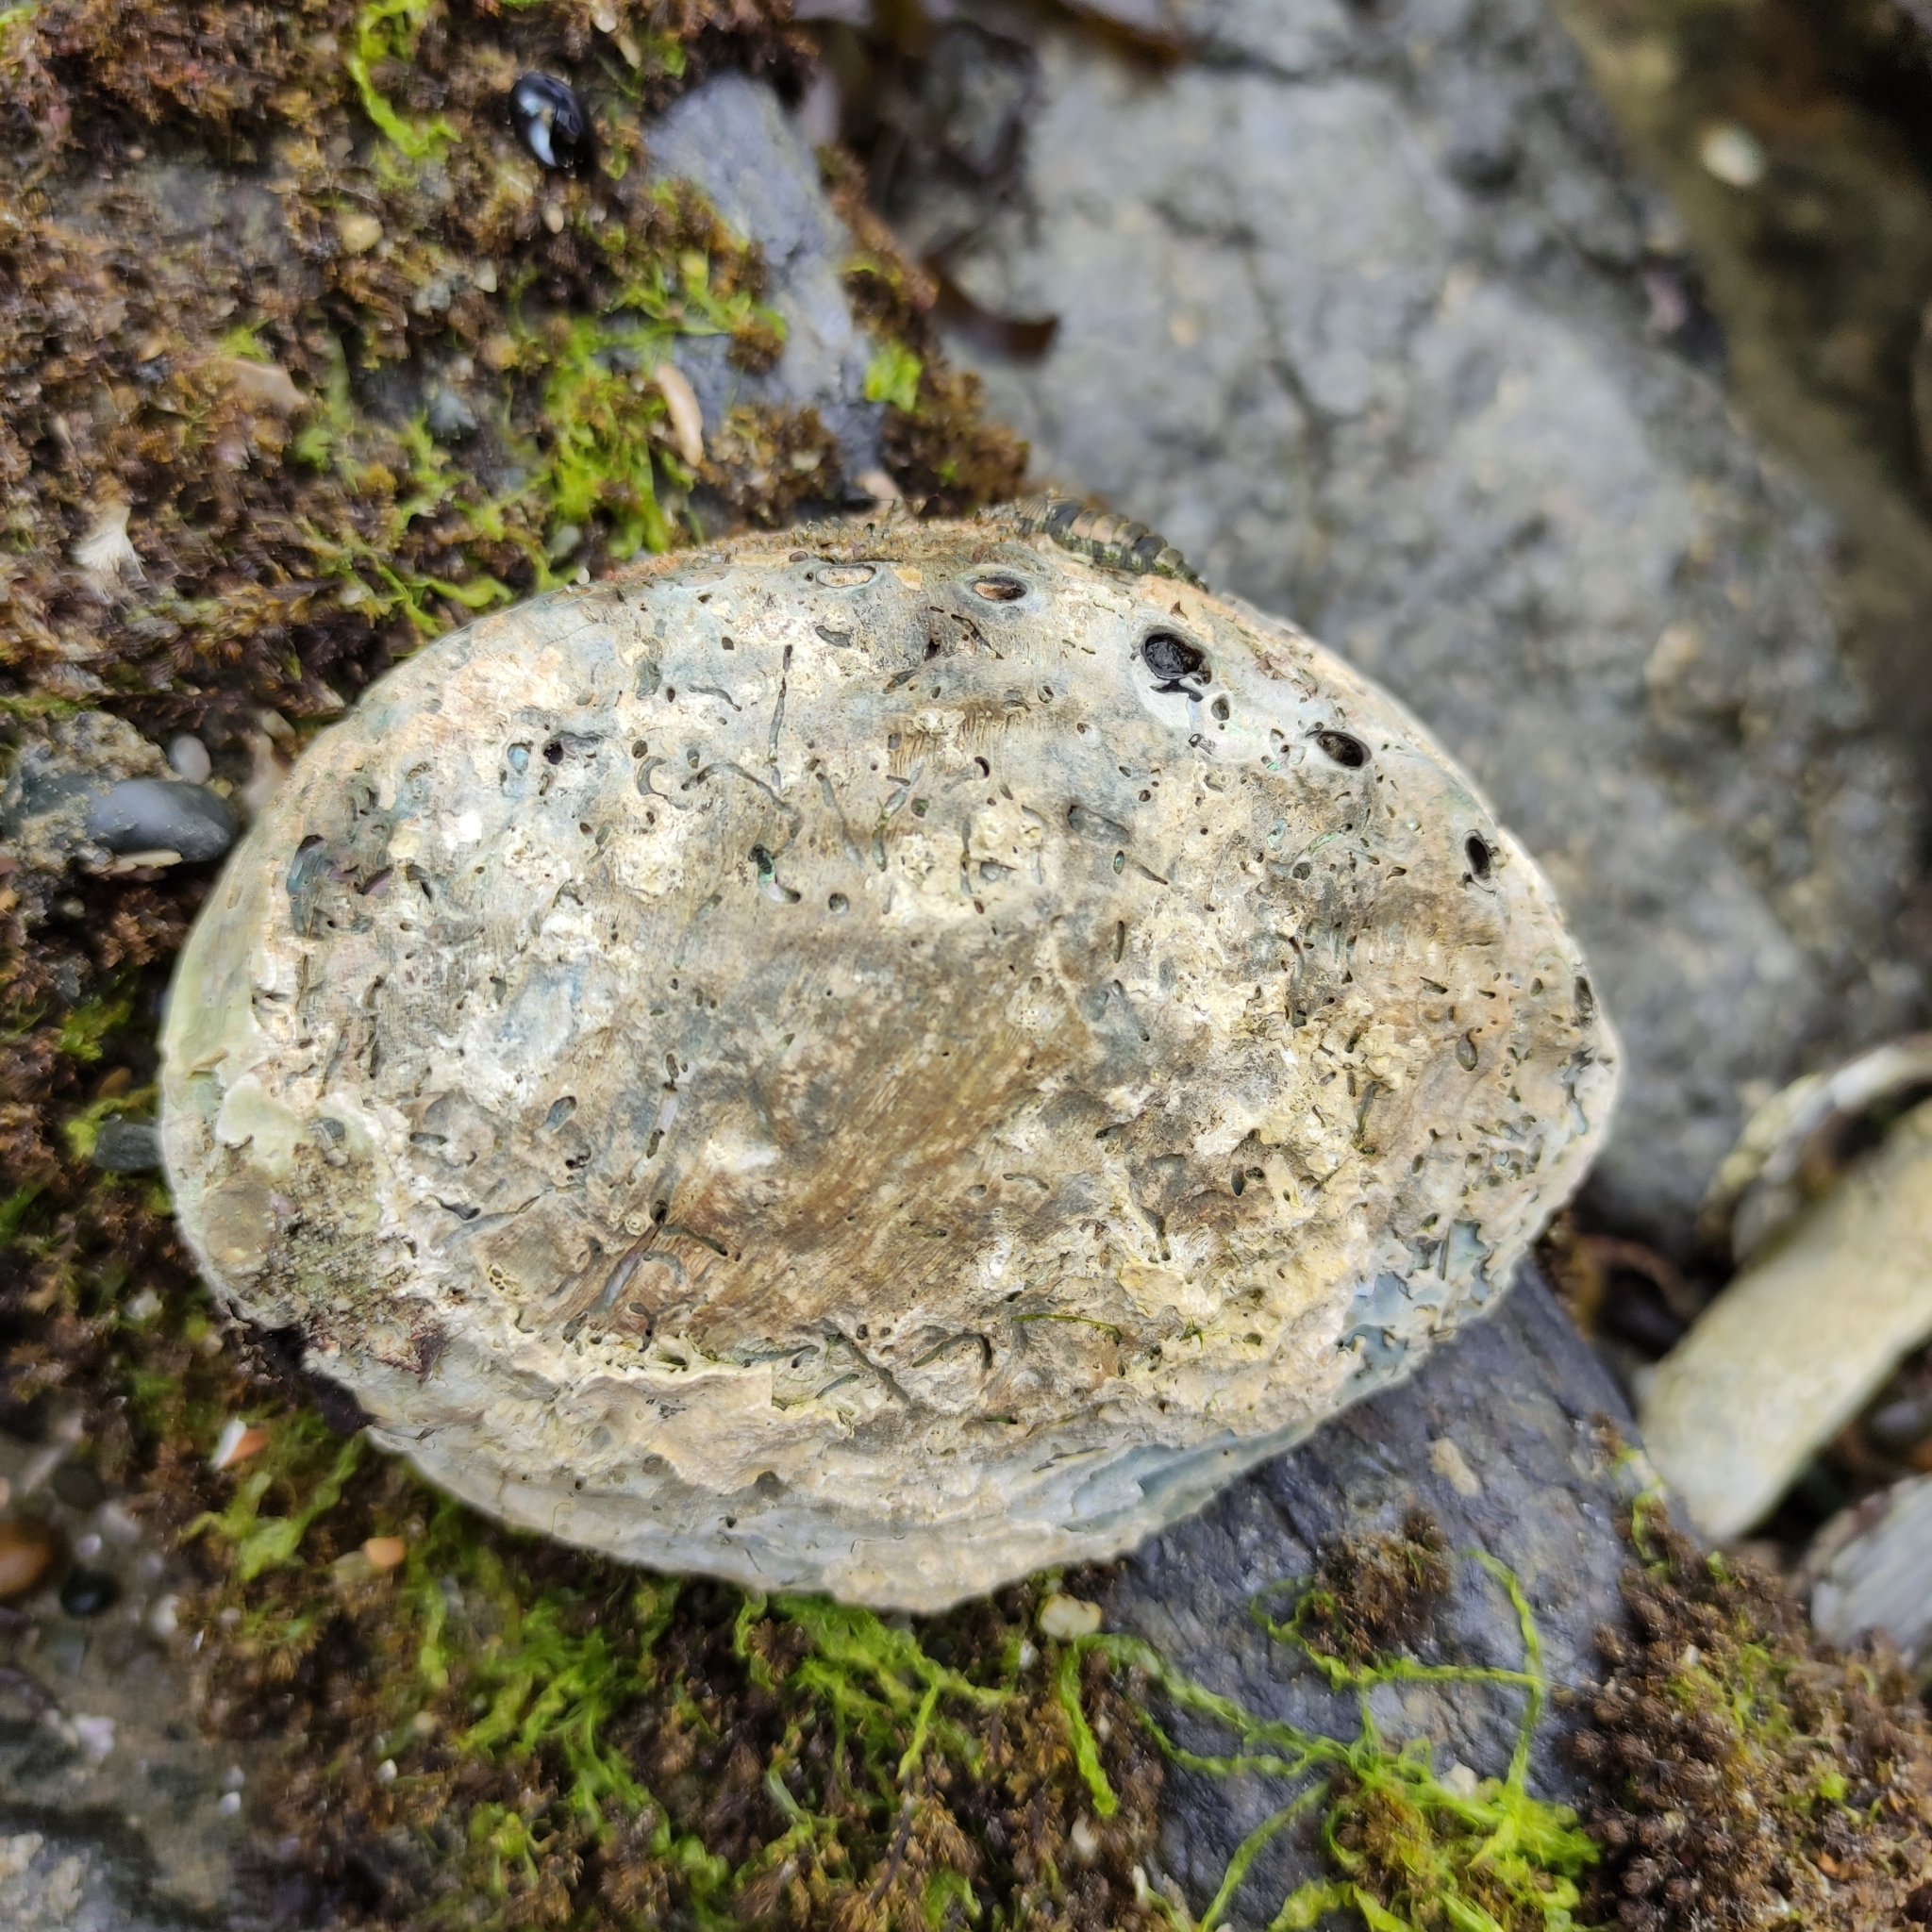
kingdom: Animalia
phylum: Mollusca
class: Gastropoda
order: Lepetellida
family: Haliotidae
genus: Haliotis
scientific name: Haliotis iris
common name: Abalone
